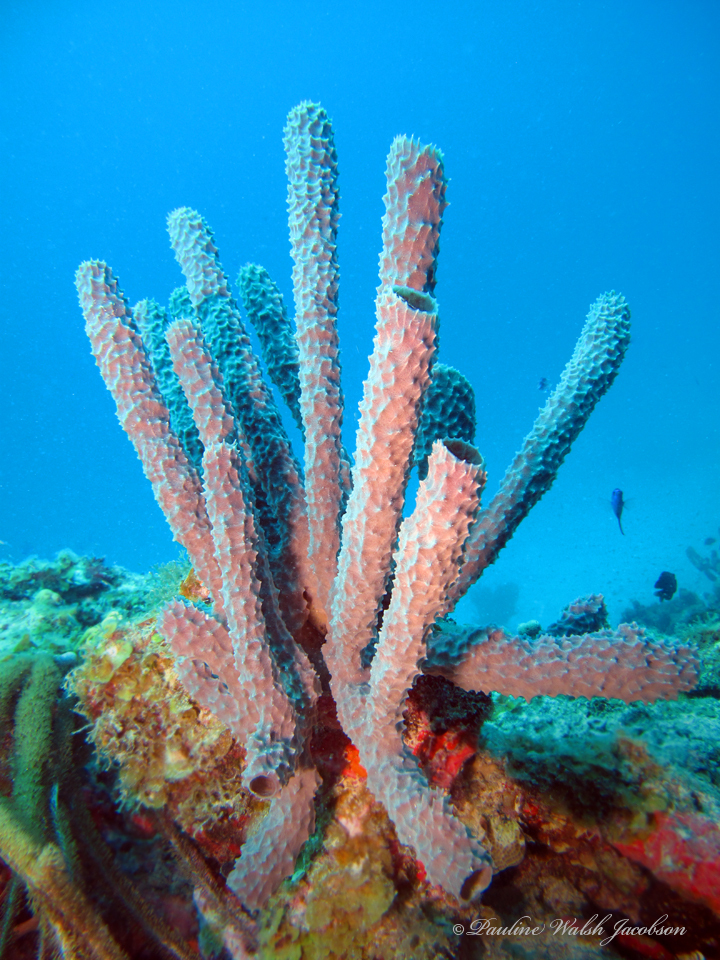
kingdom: Animalia
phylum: Porifera
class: Demospongiae
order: Haplosclerida
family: Callyspongiidae
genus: Callyspongia
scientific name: Callyspongia aculeata
